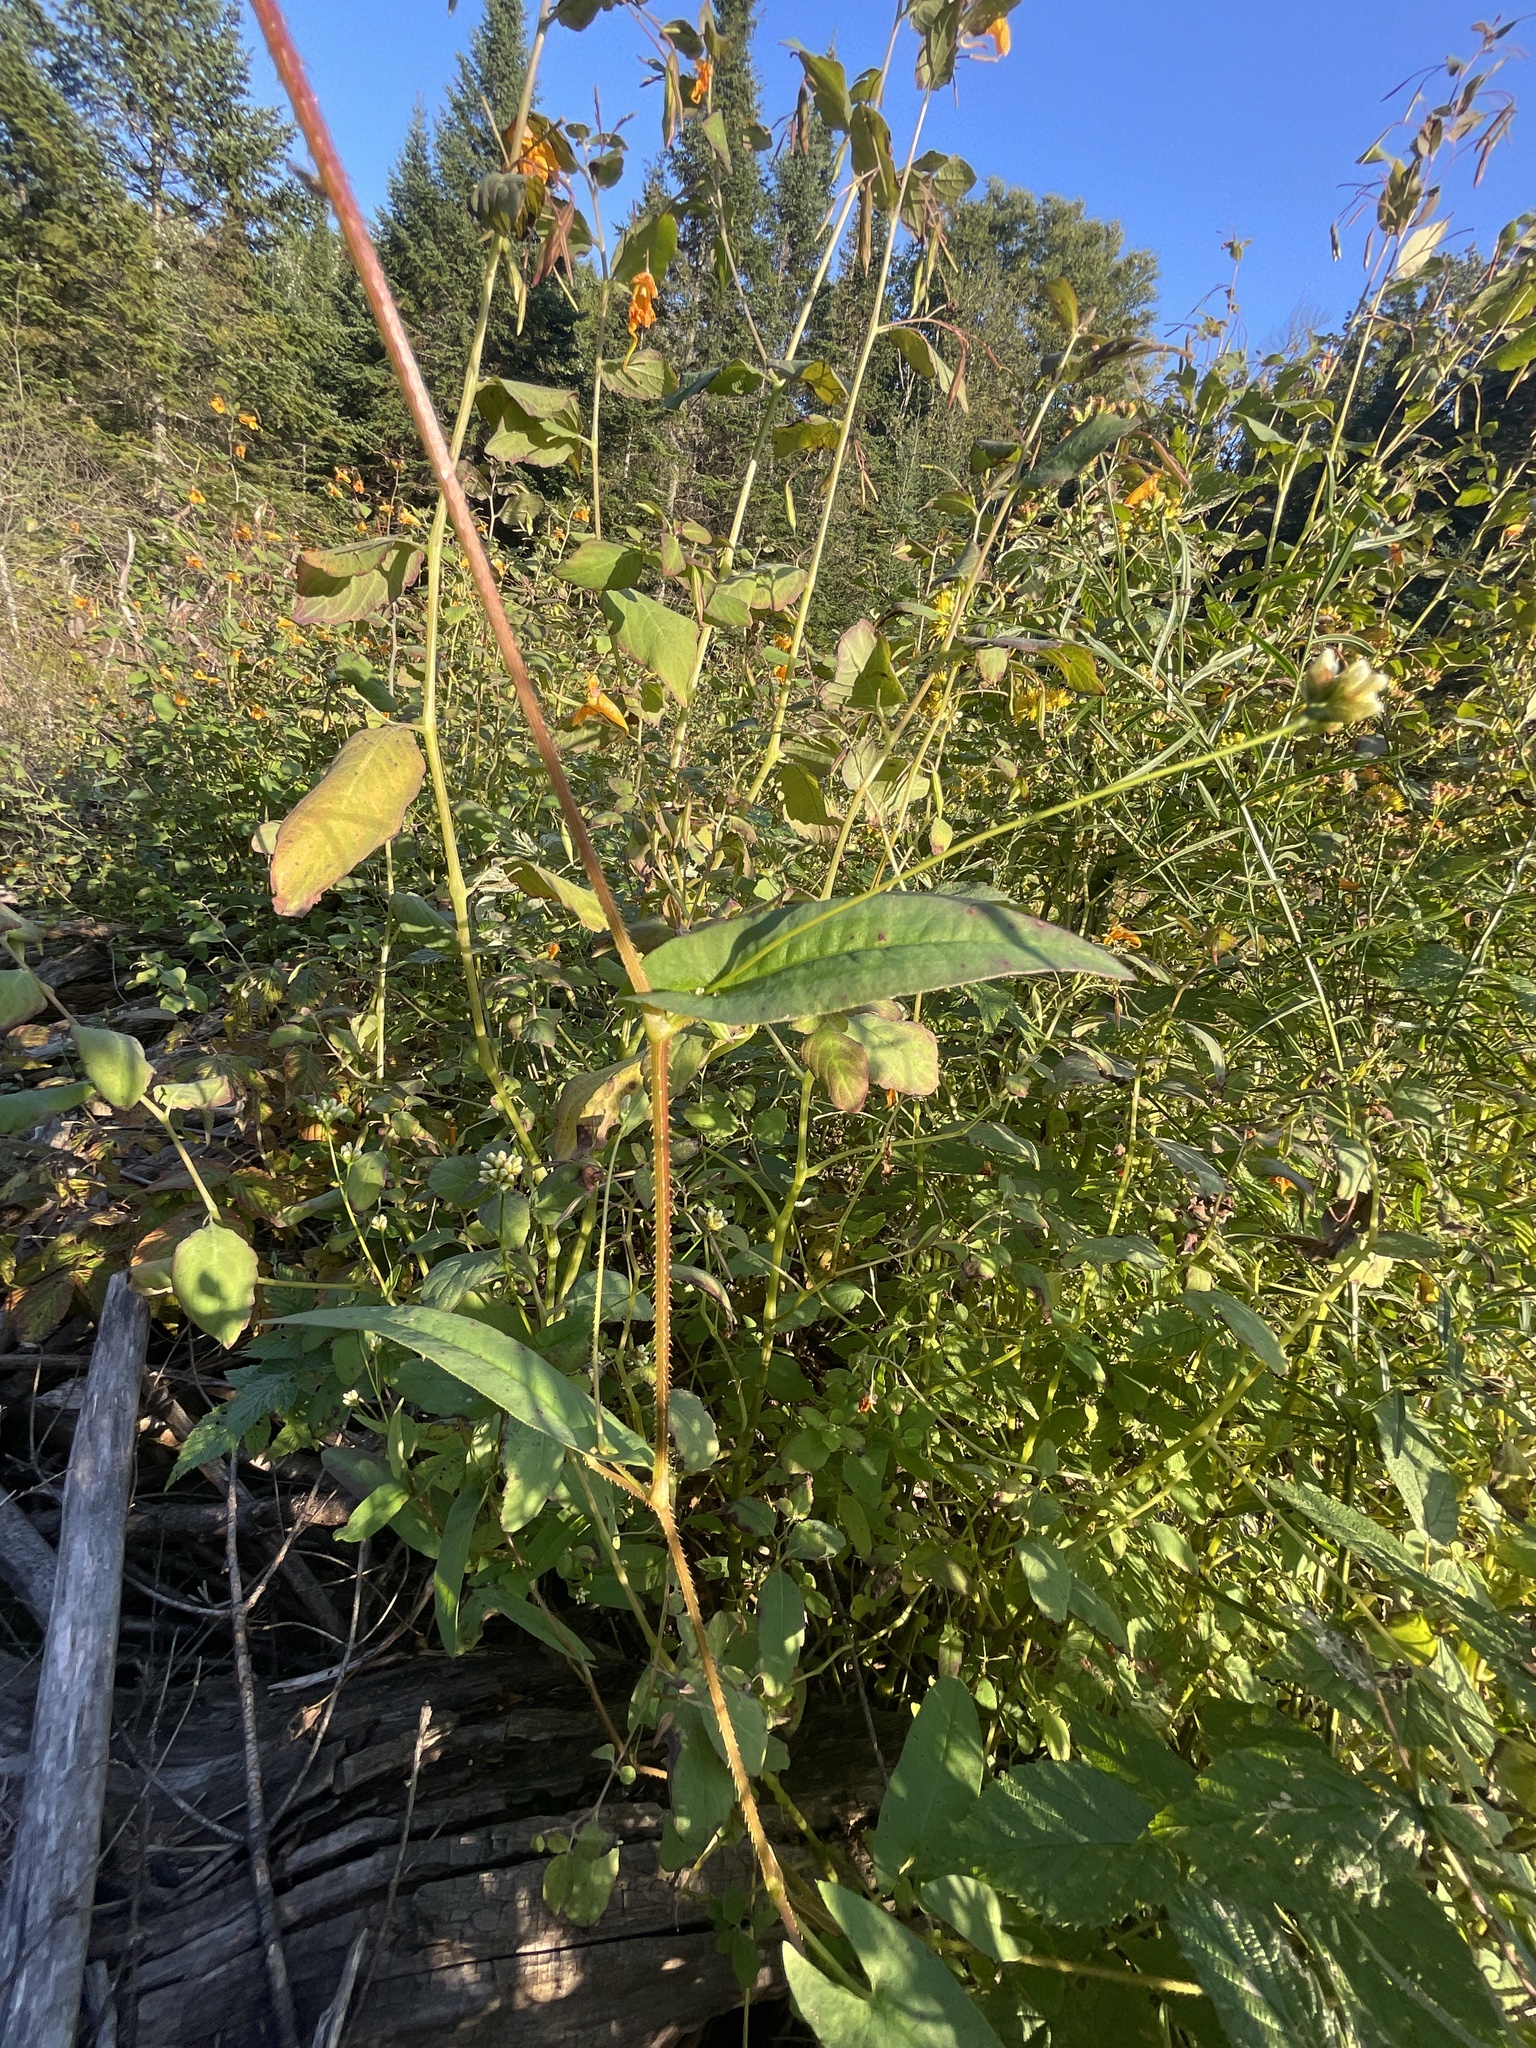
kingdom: Plantae
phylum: Tracheophyta
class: Magnoliopsida
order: Caryophyllales
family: Polygonaceae
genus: Persicaria
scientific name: Persicaria sagittata
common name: American tearthumb
